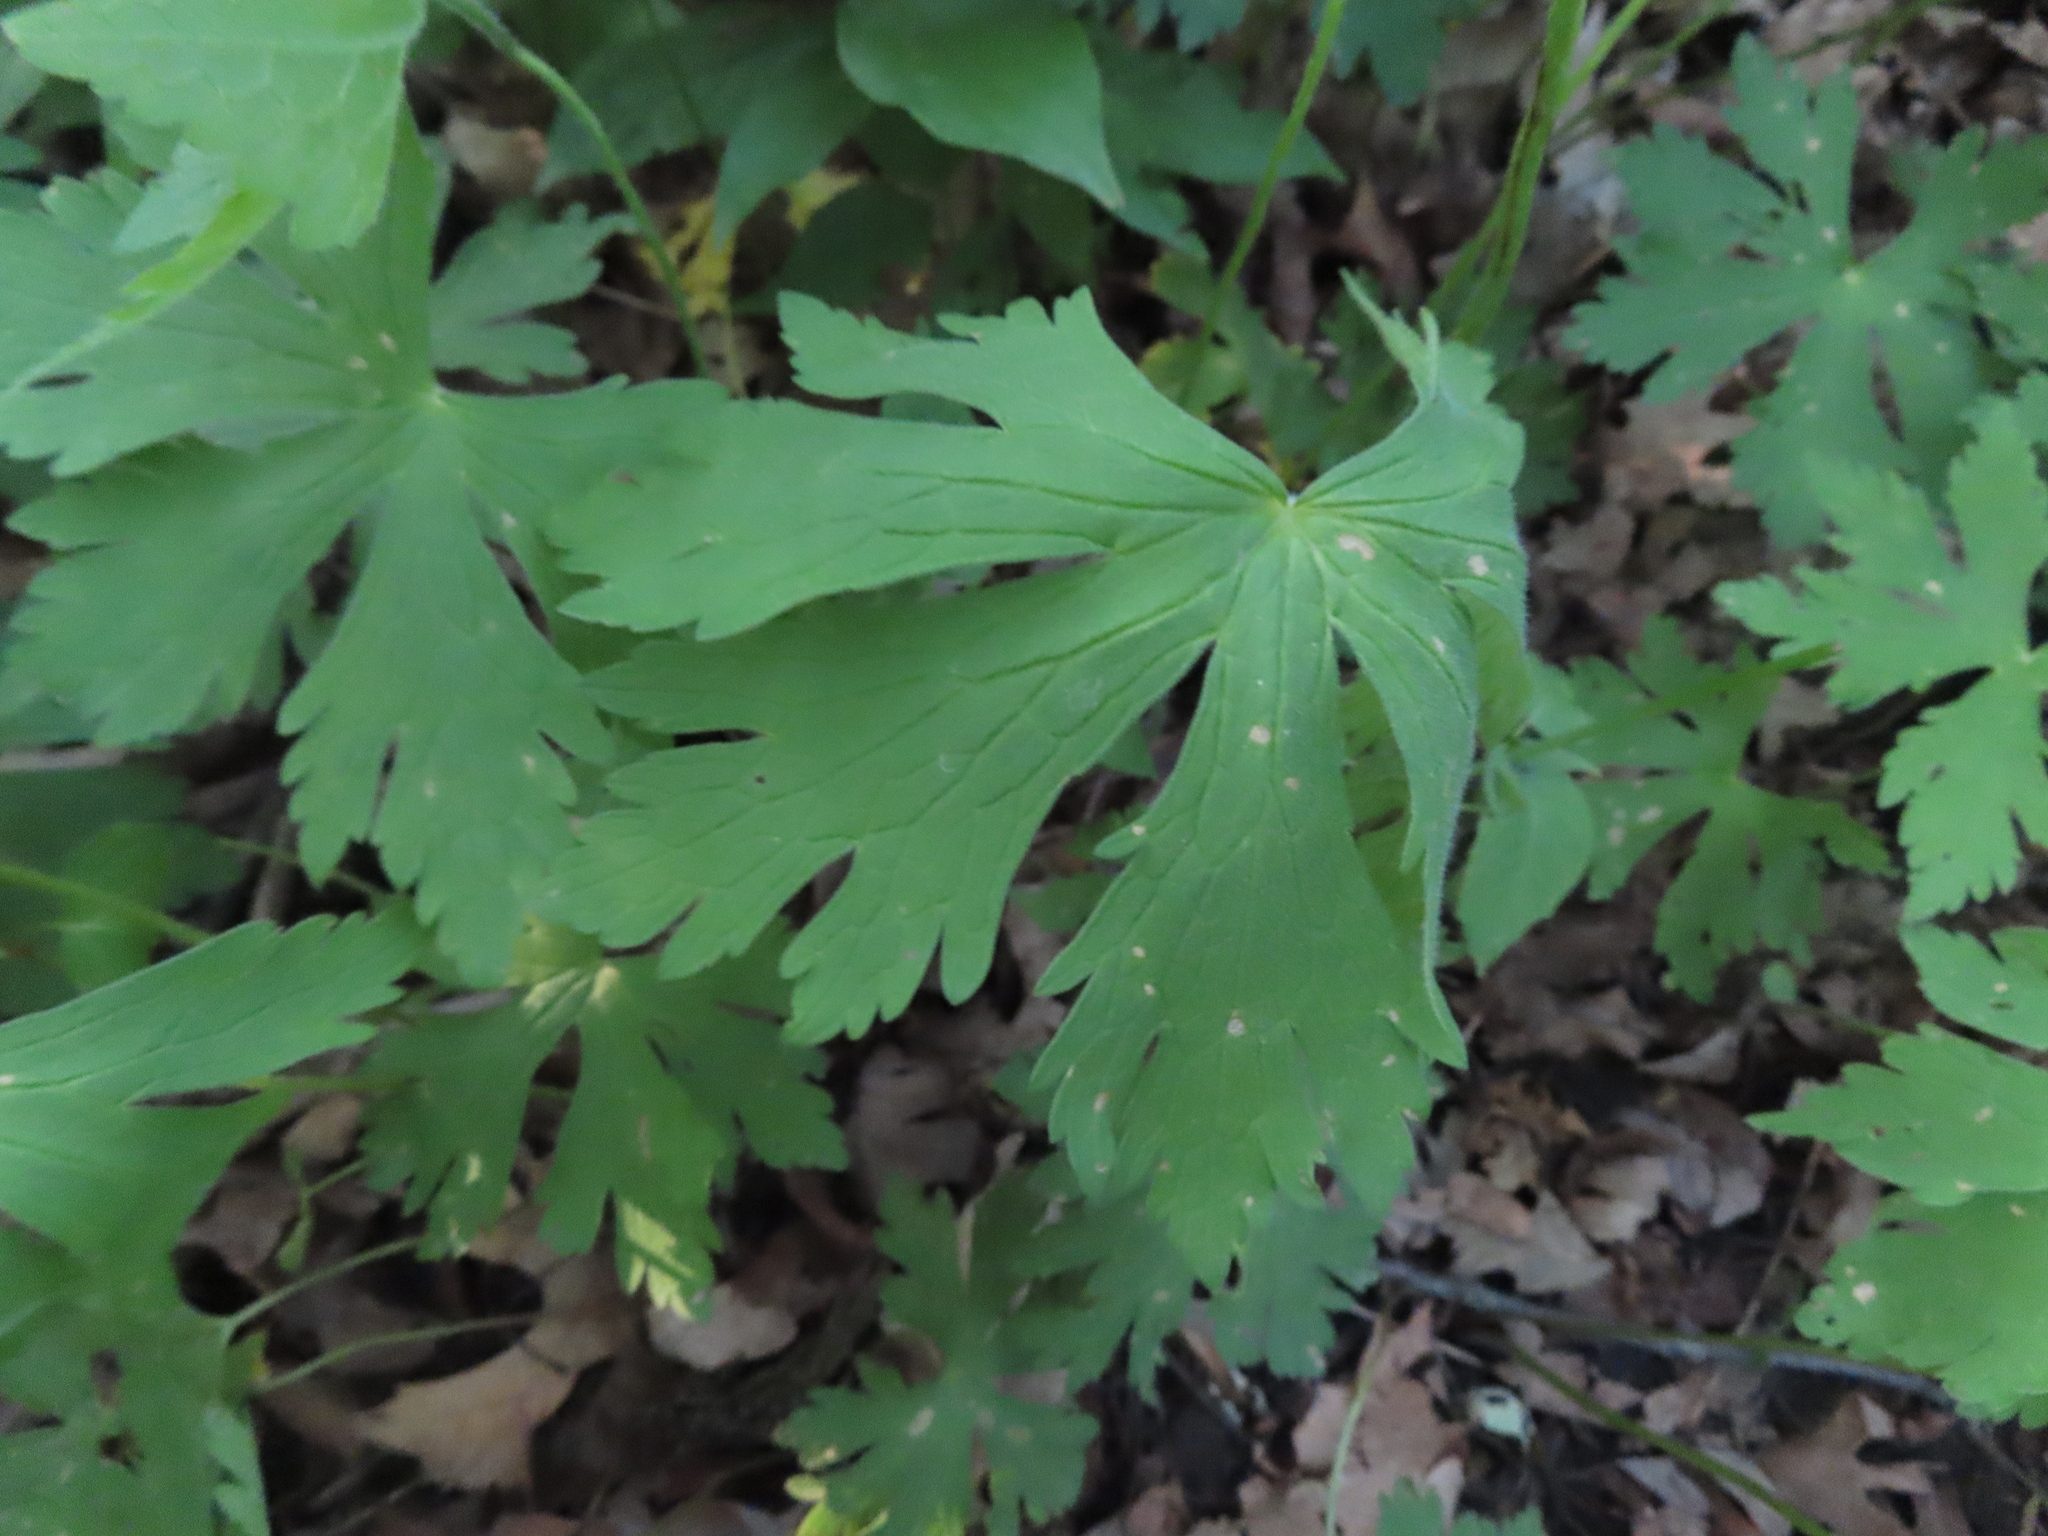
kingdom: Plantae
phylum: Tracheophyta
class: Magnoliopsida
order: Geraniales
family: Geraniaceae
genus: Geranium
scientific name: Geranium maculatum
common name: Spotted geranium
